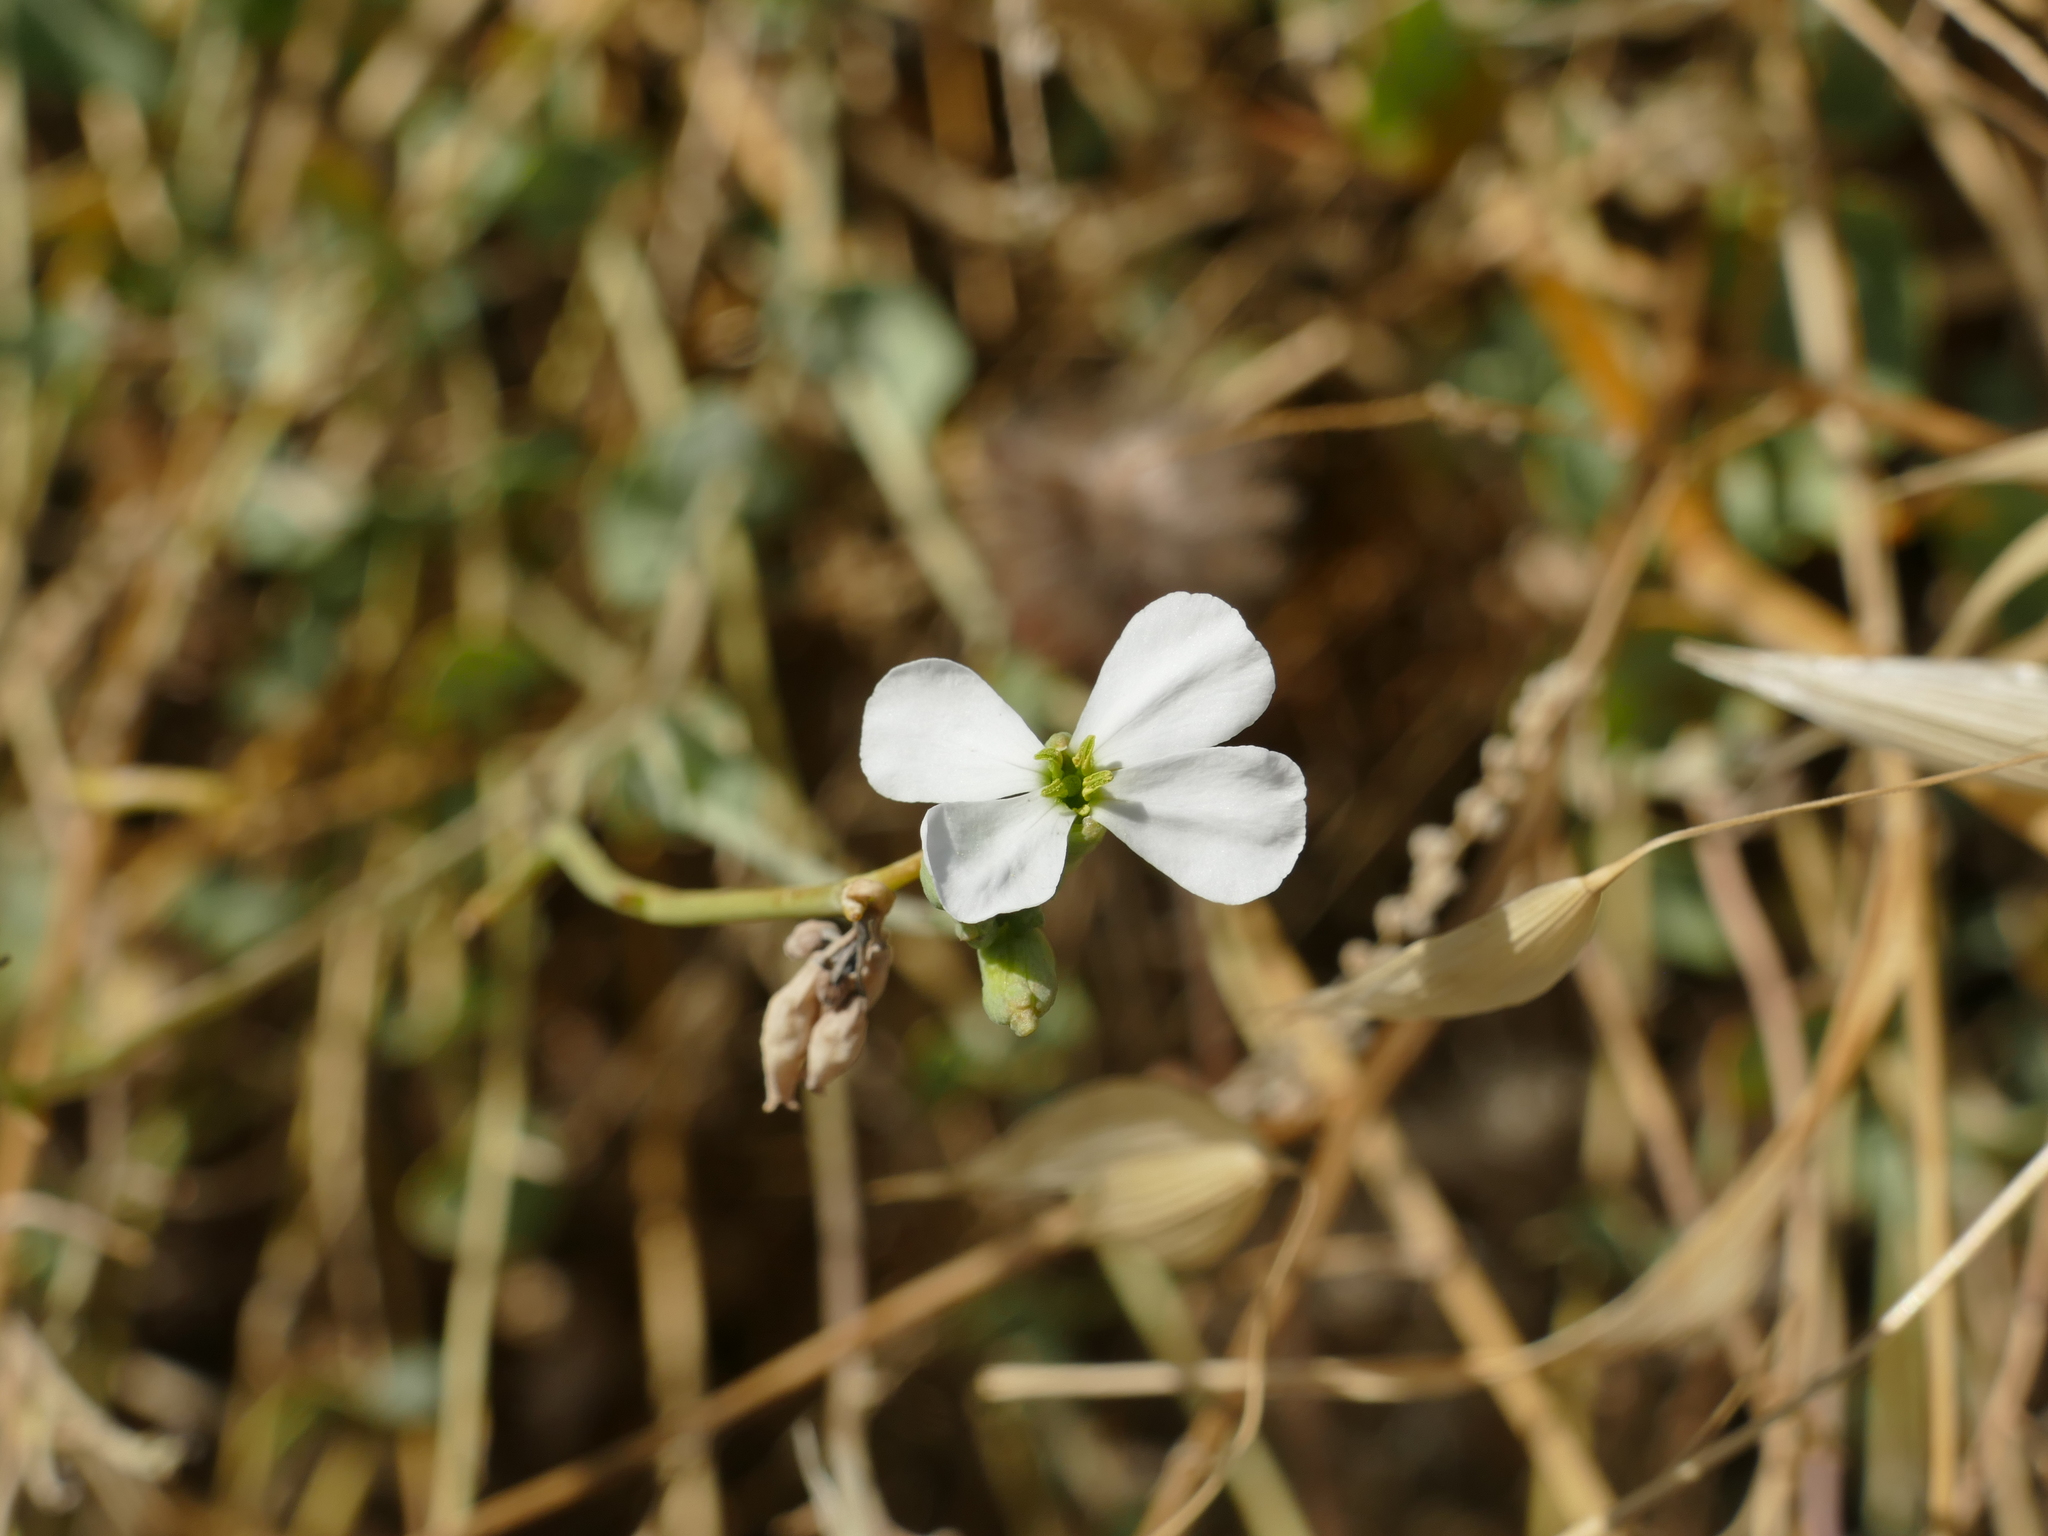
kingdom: Plantae
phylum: Tracheophyta
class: Magnoliopsida
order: Brassicales
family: Brassicaceae
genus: Moricandia
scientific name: Moricandia arvensis
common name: Purple mistress
